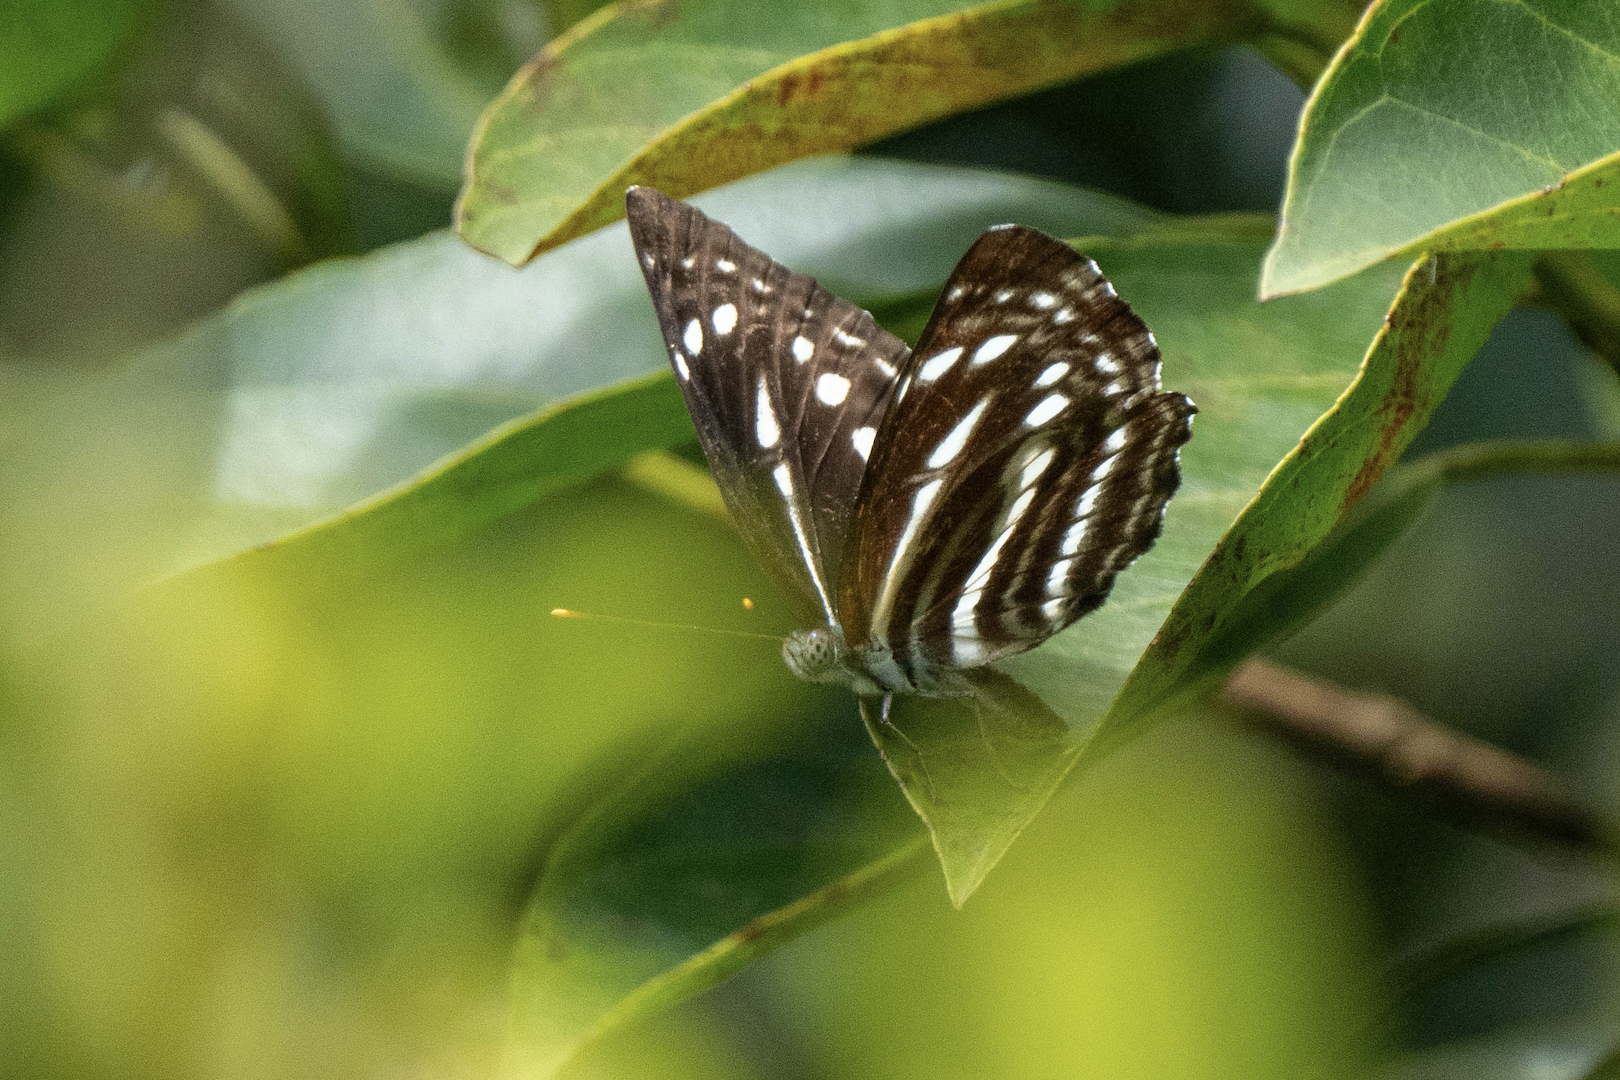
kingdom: Animalia
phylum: Arthropoda
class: Insecta
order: Lepidoptera
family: Nymphalidae
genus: Neptis
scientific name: Neptis nata
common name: Sullied brown sailer
